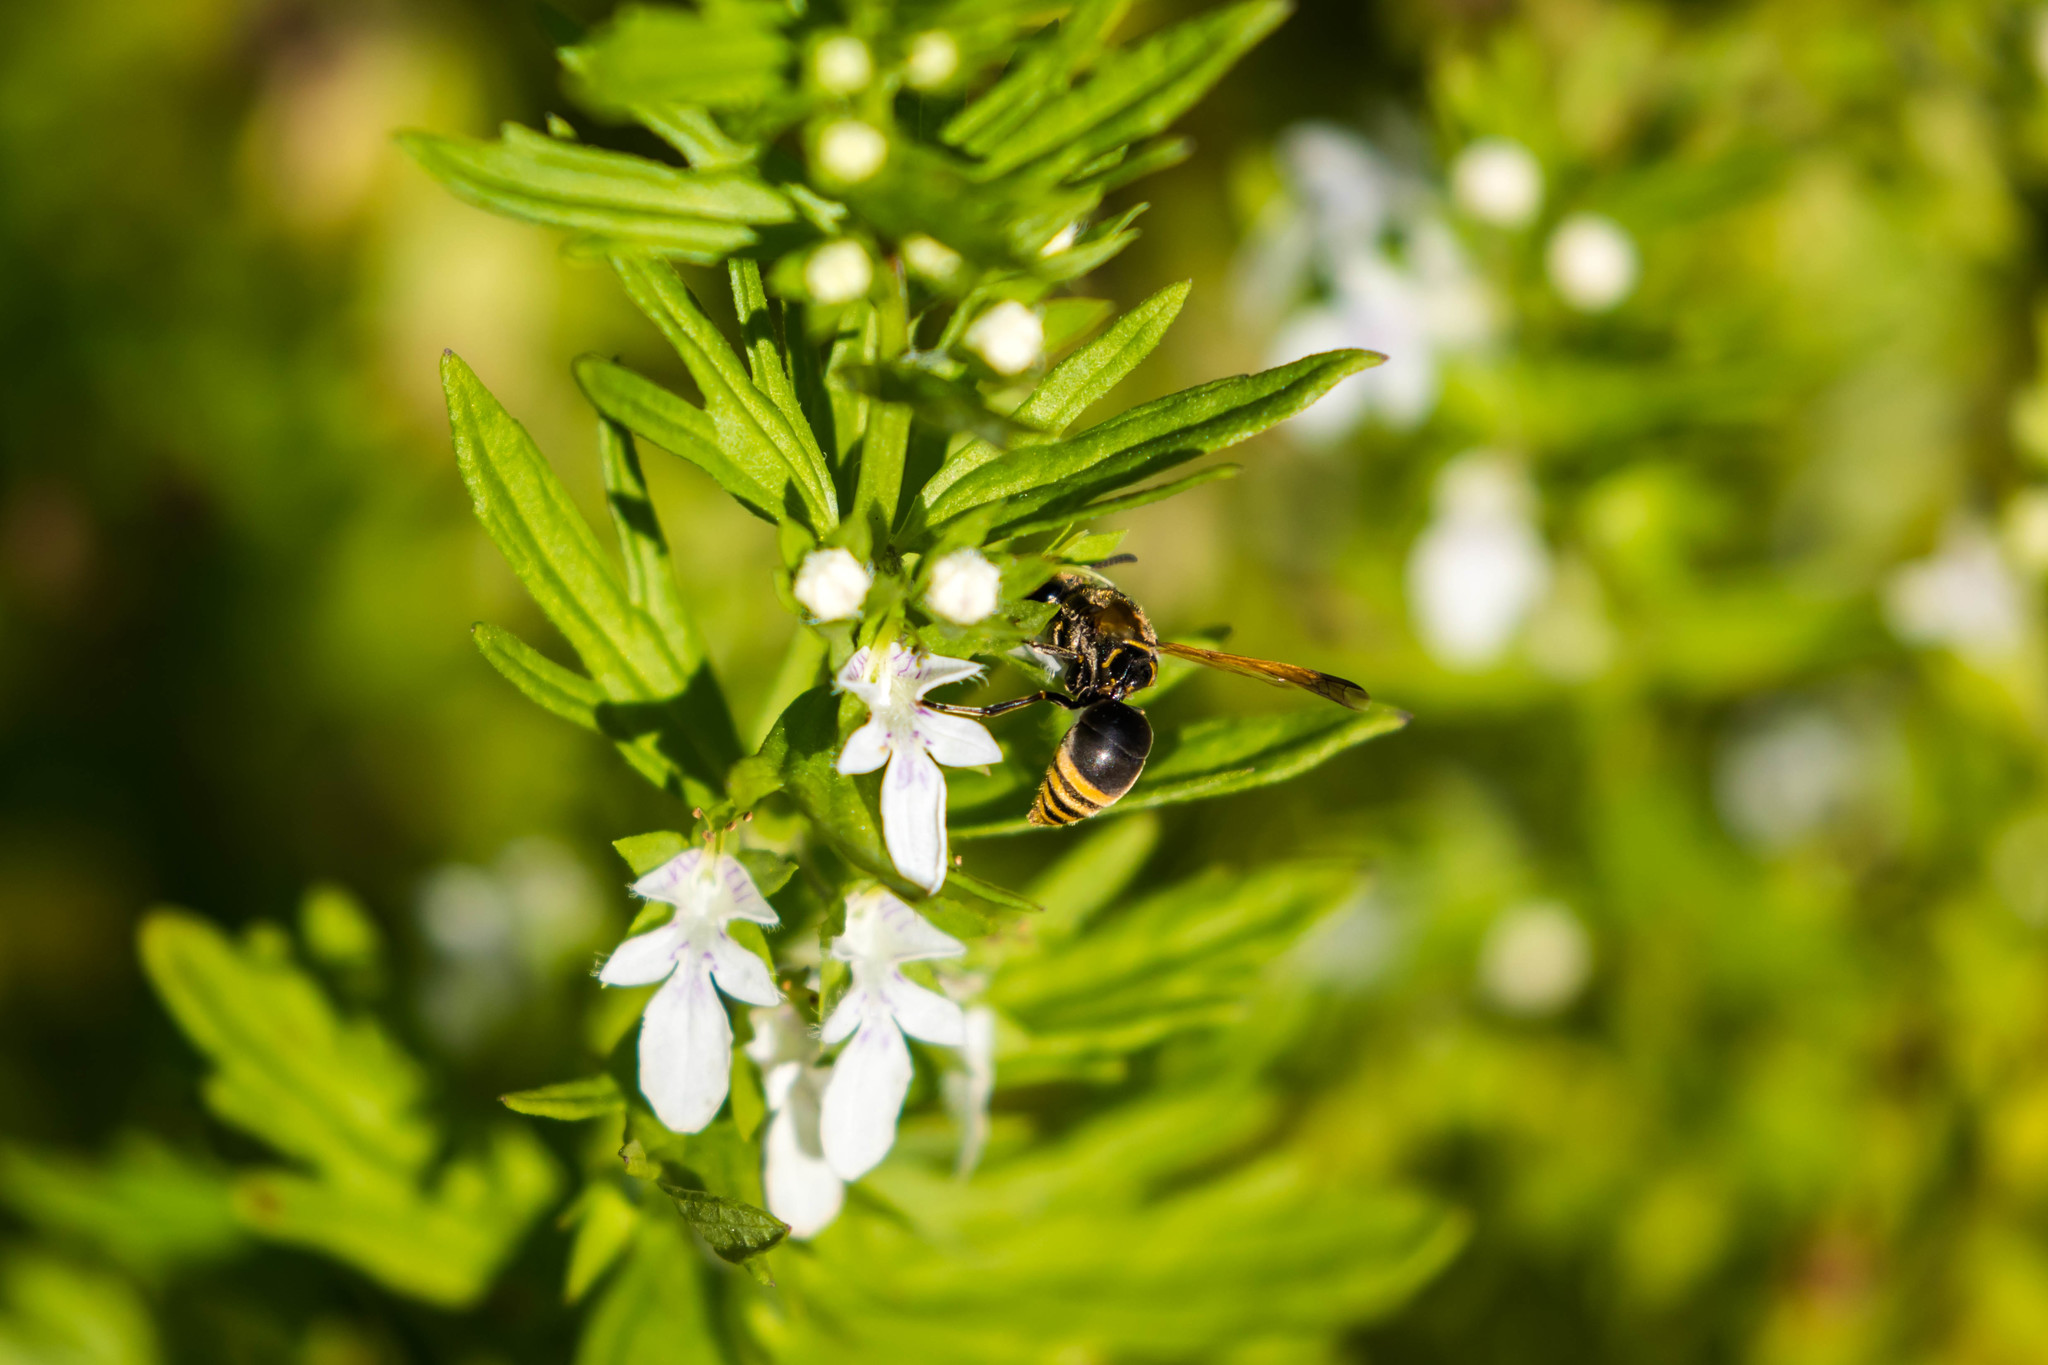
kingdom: Animalia
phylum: Arthropoda
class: Insecta
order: Hymenoptera
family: Eumenidae
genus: Pachodynerus
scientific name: Pachodynerus nasidens
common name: Key hole wasp
